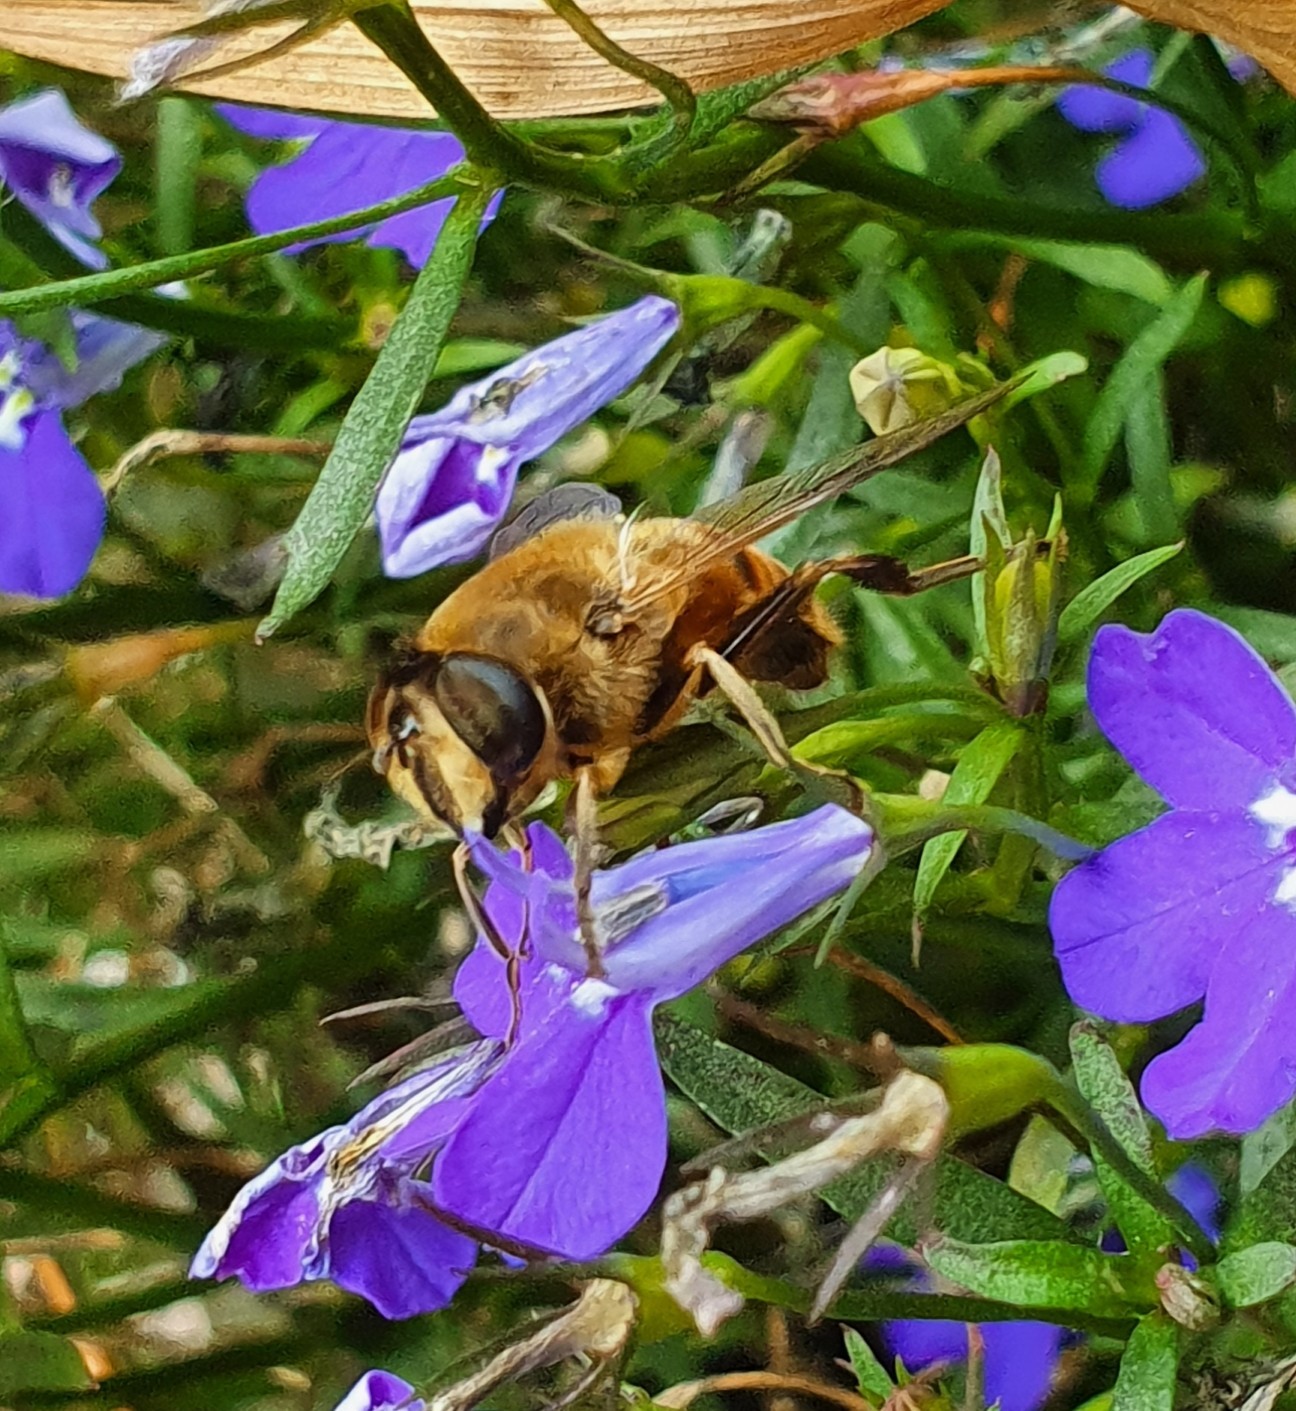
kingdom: Animalia
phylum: Arthropoda
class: Insecta
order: Diptera
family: Syrphidae
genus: Eristalis
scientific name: Eristalis tenax
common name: Drone fly
